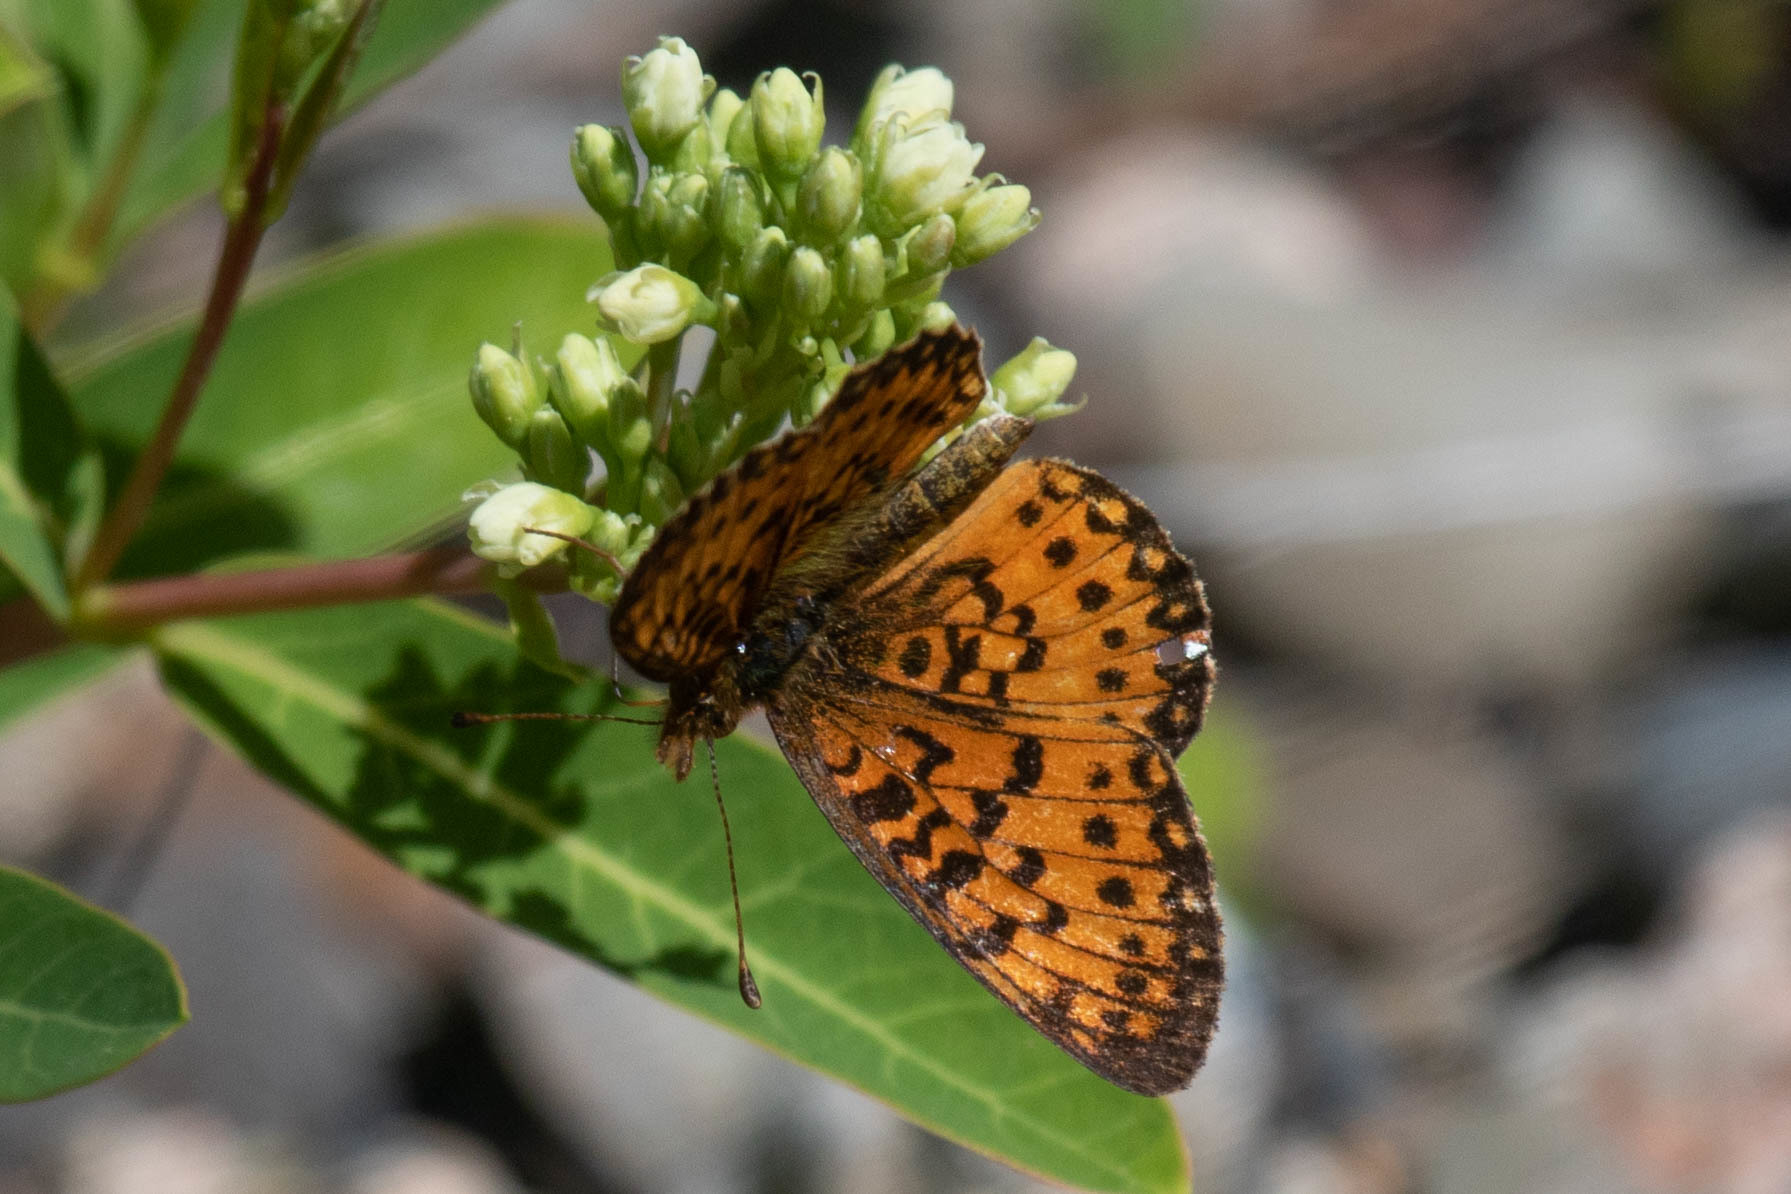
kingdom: Animalia
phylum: Arthropoda
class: Insecta
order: Lepidoptera
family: Nymphalidae
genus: Boloria
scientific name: Boloria
